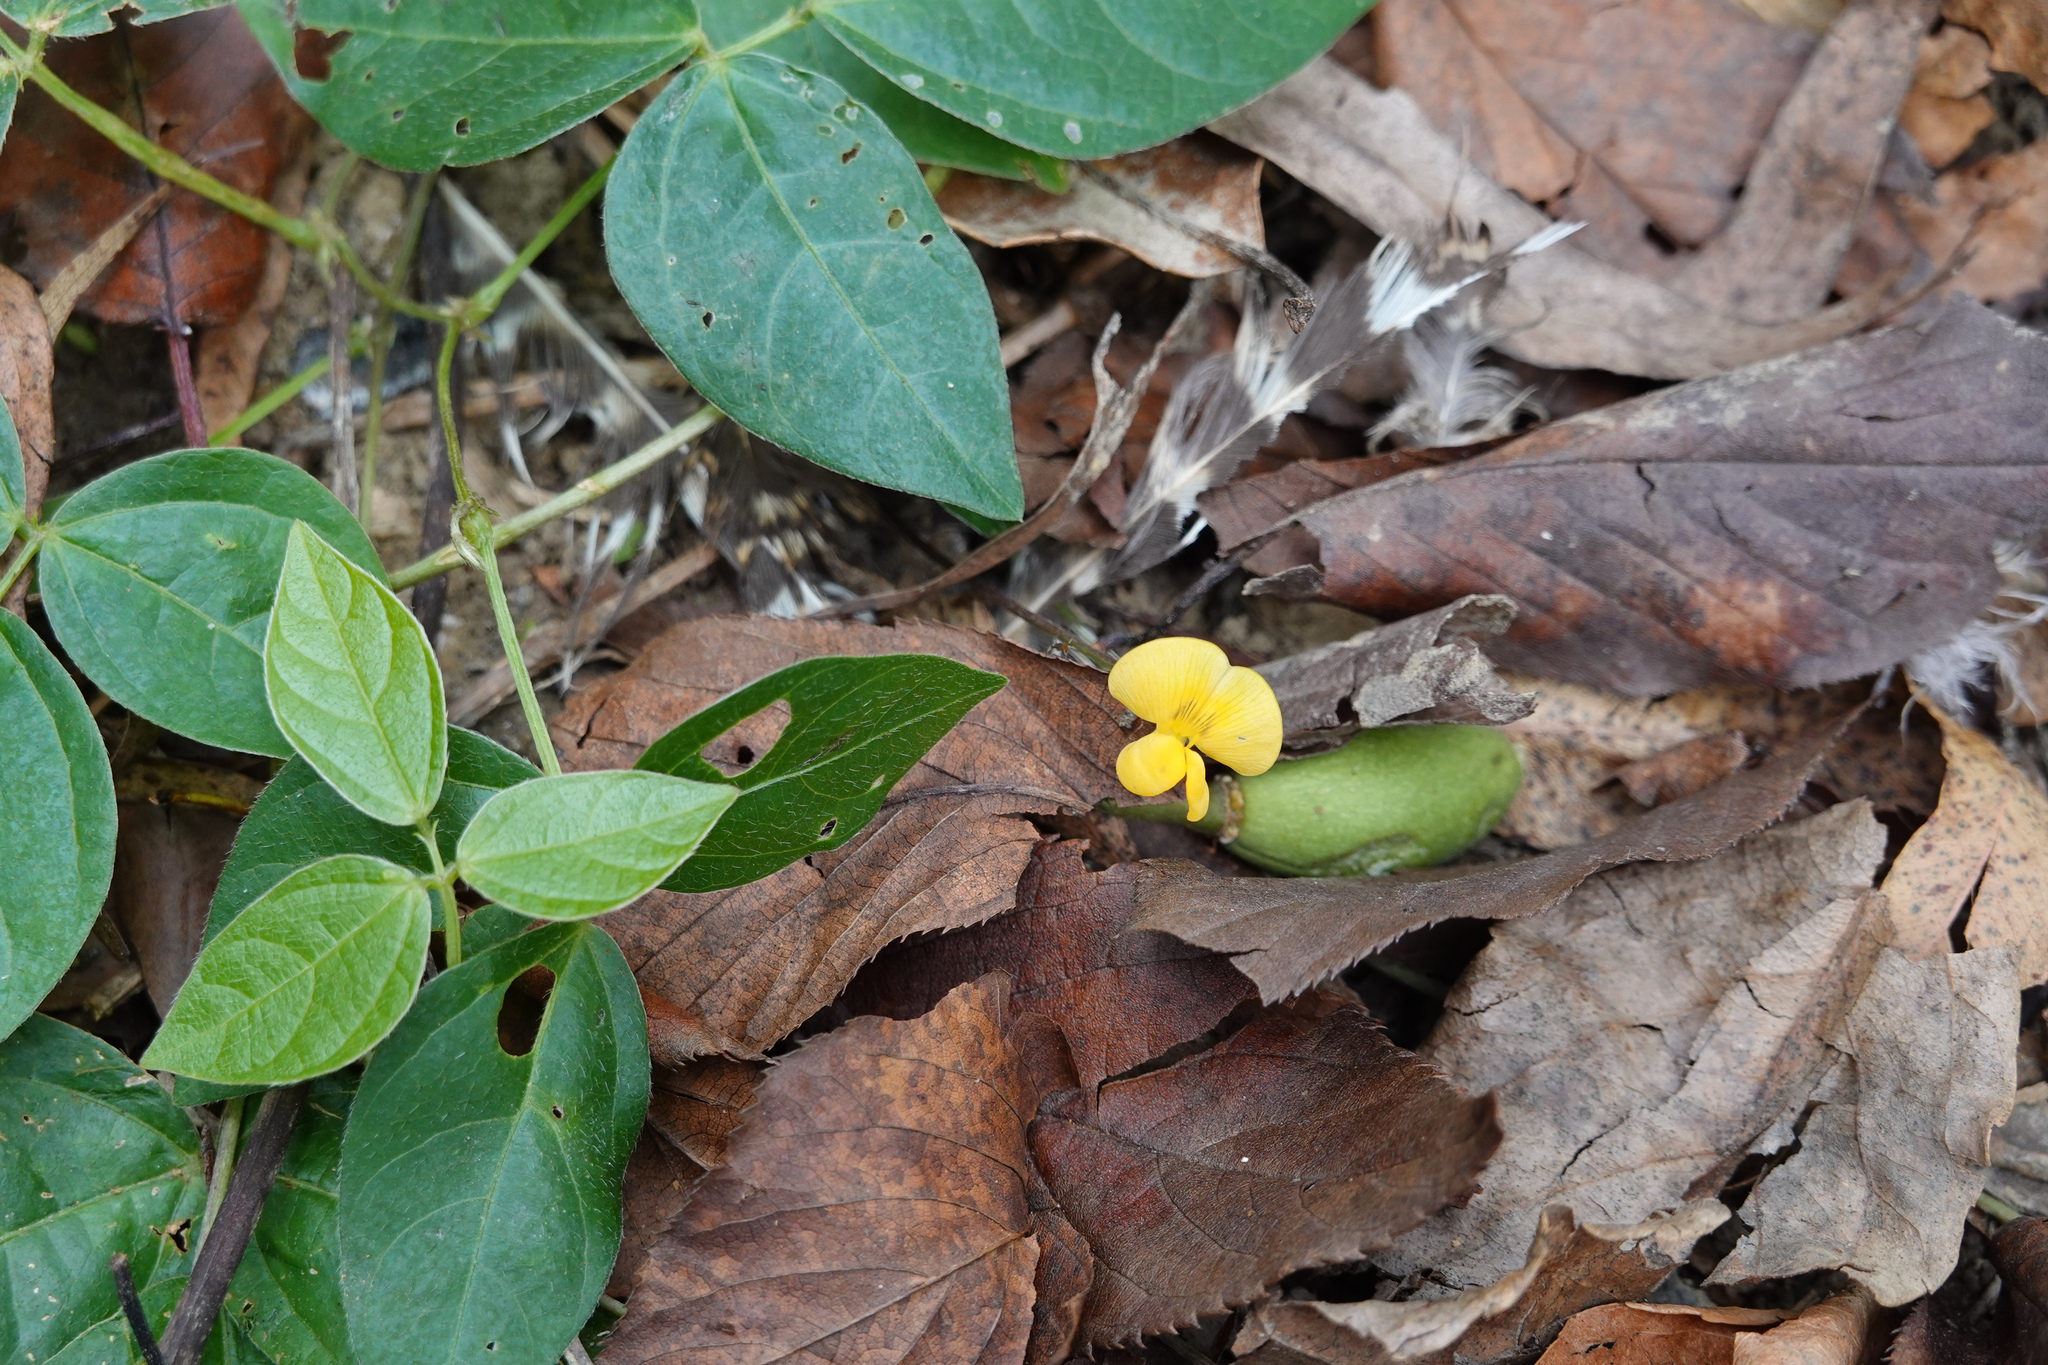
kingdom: Plantae
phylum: Tracheophyta
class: Magnoliopsida
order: Fabales
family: Fabaceae
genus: Vigna
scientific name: Vigna hosei
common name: Sarawak-bean
